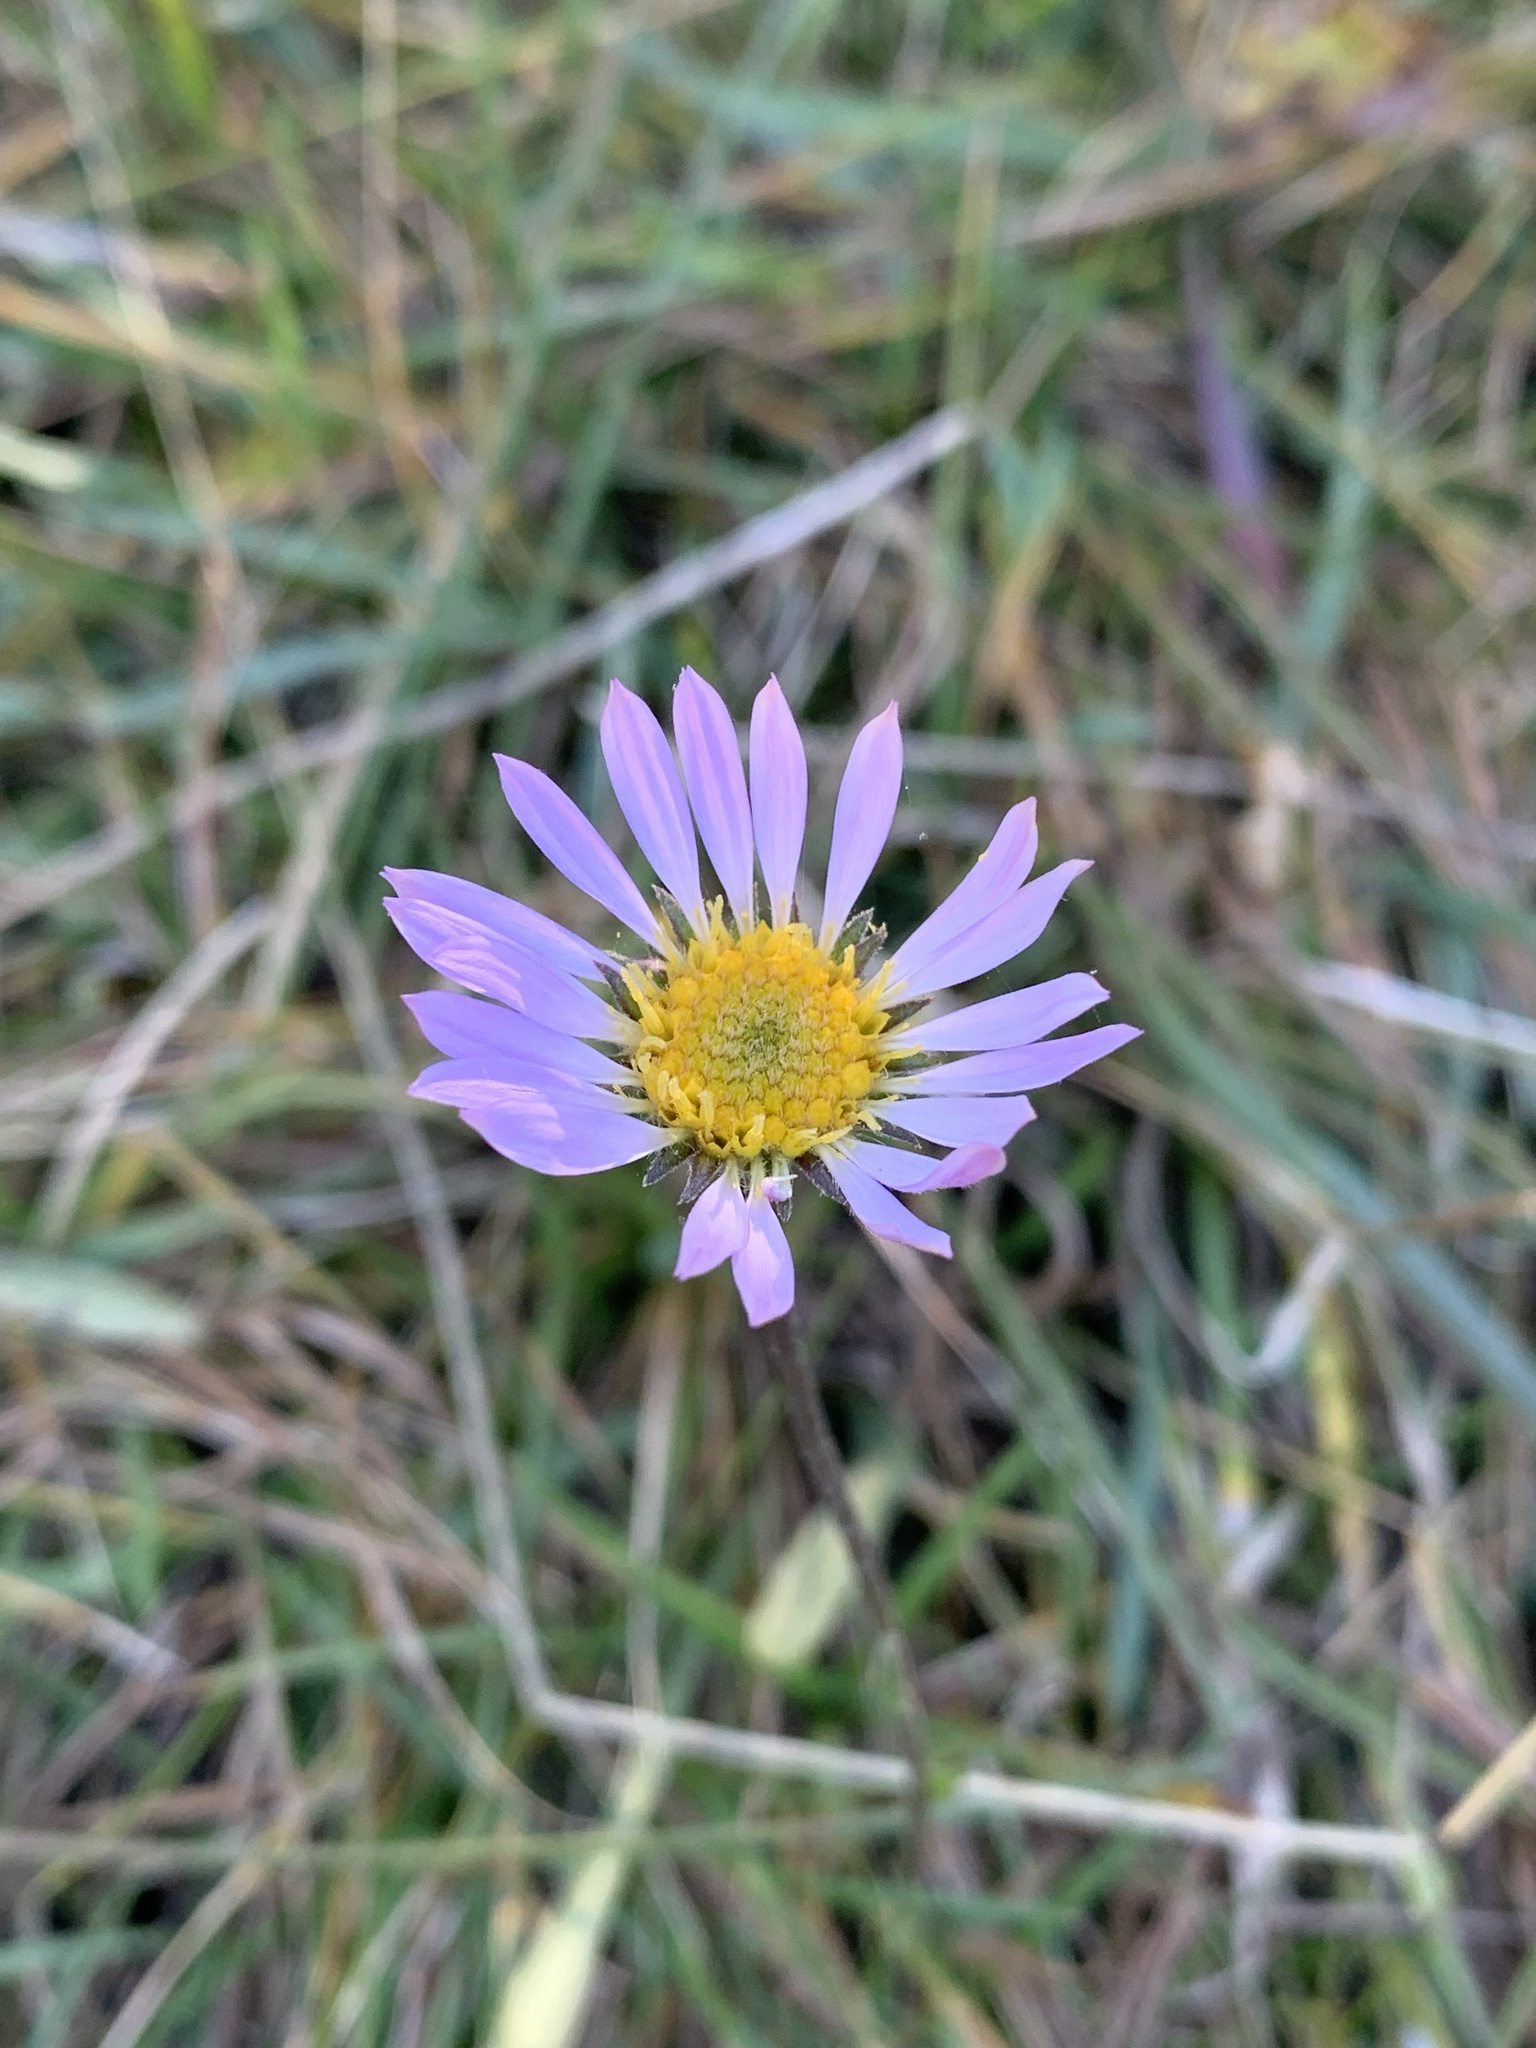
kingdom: Plantae
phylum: Tracheophyta
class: Magnoliopsida
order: Asterales
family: Asteraceae
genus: Oreostemma
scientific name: Oreostemma alpigenum
